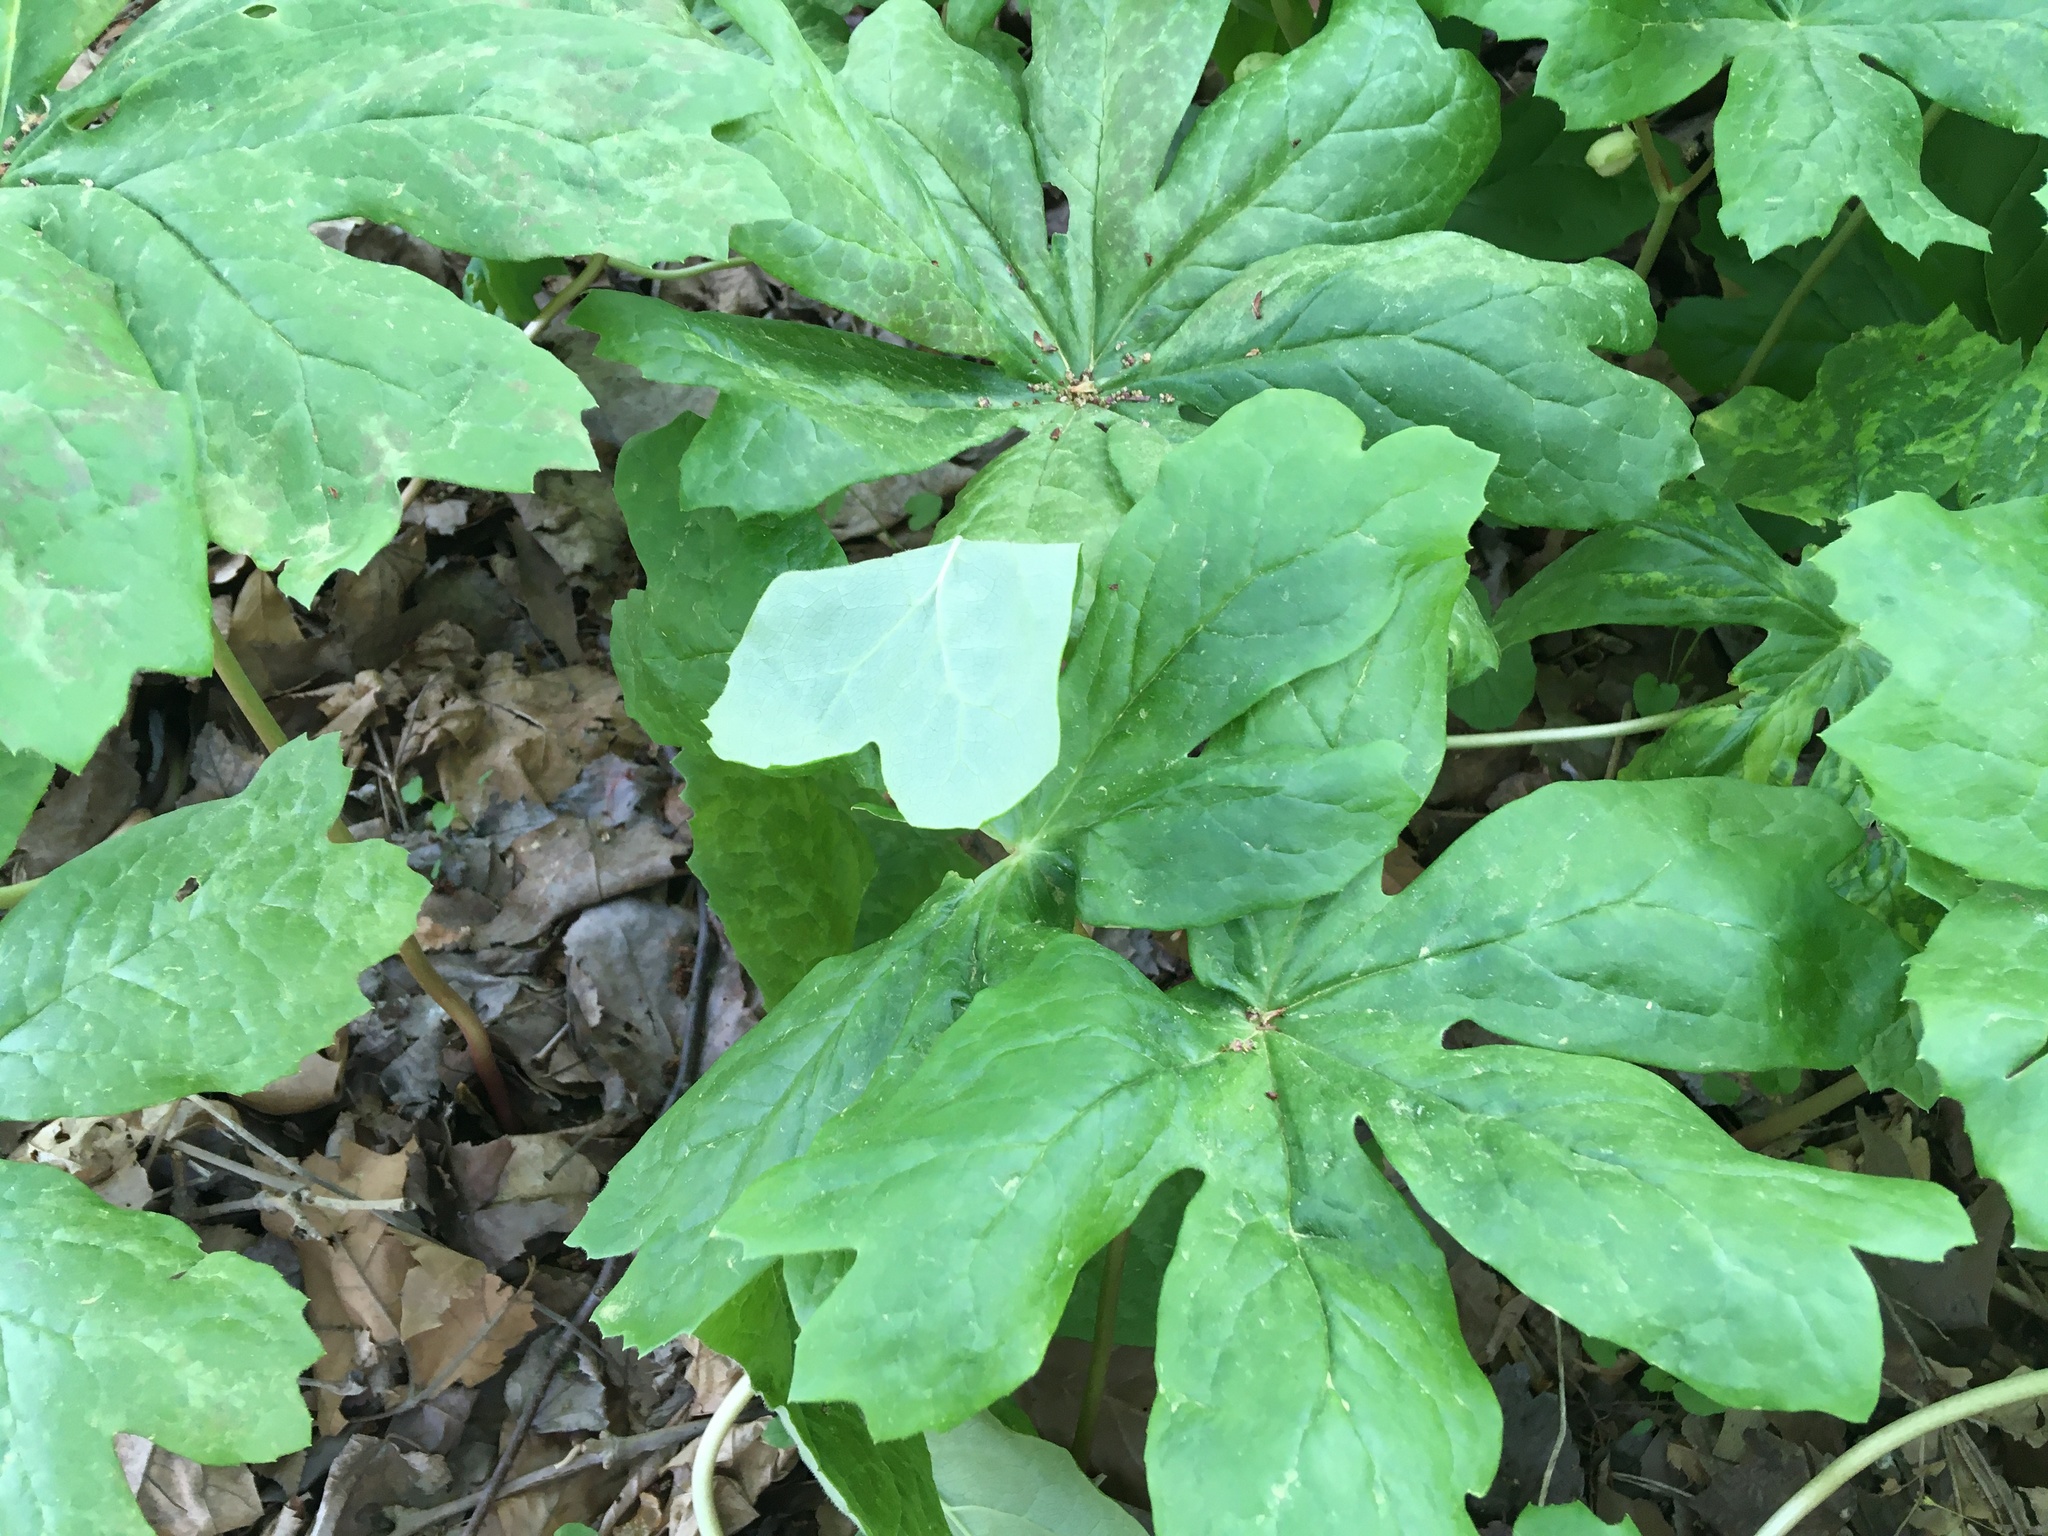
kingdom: Plantae
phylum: Tracheophyta
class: Magnoliopsida
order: Ranunculales
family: Berberidaceae
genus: Podophyllum
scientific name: Podophyllum peltatum
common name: Wild mandrake
